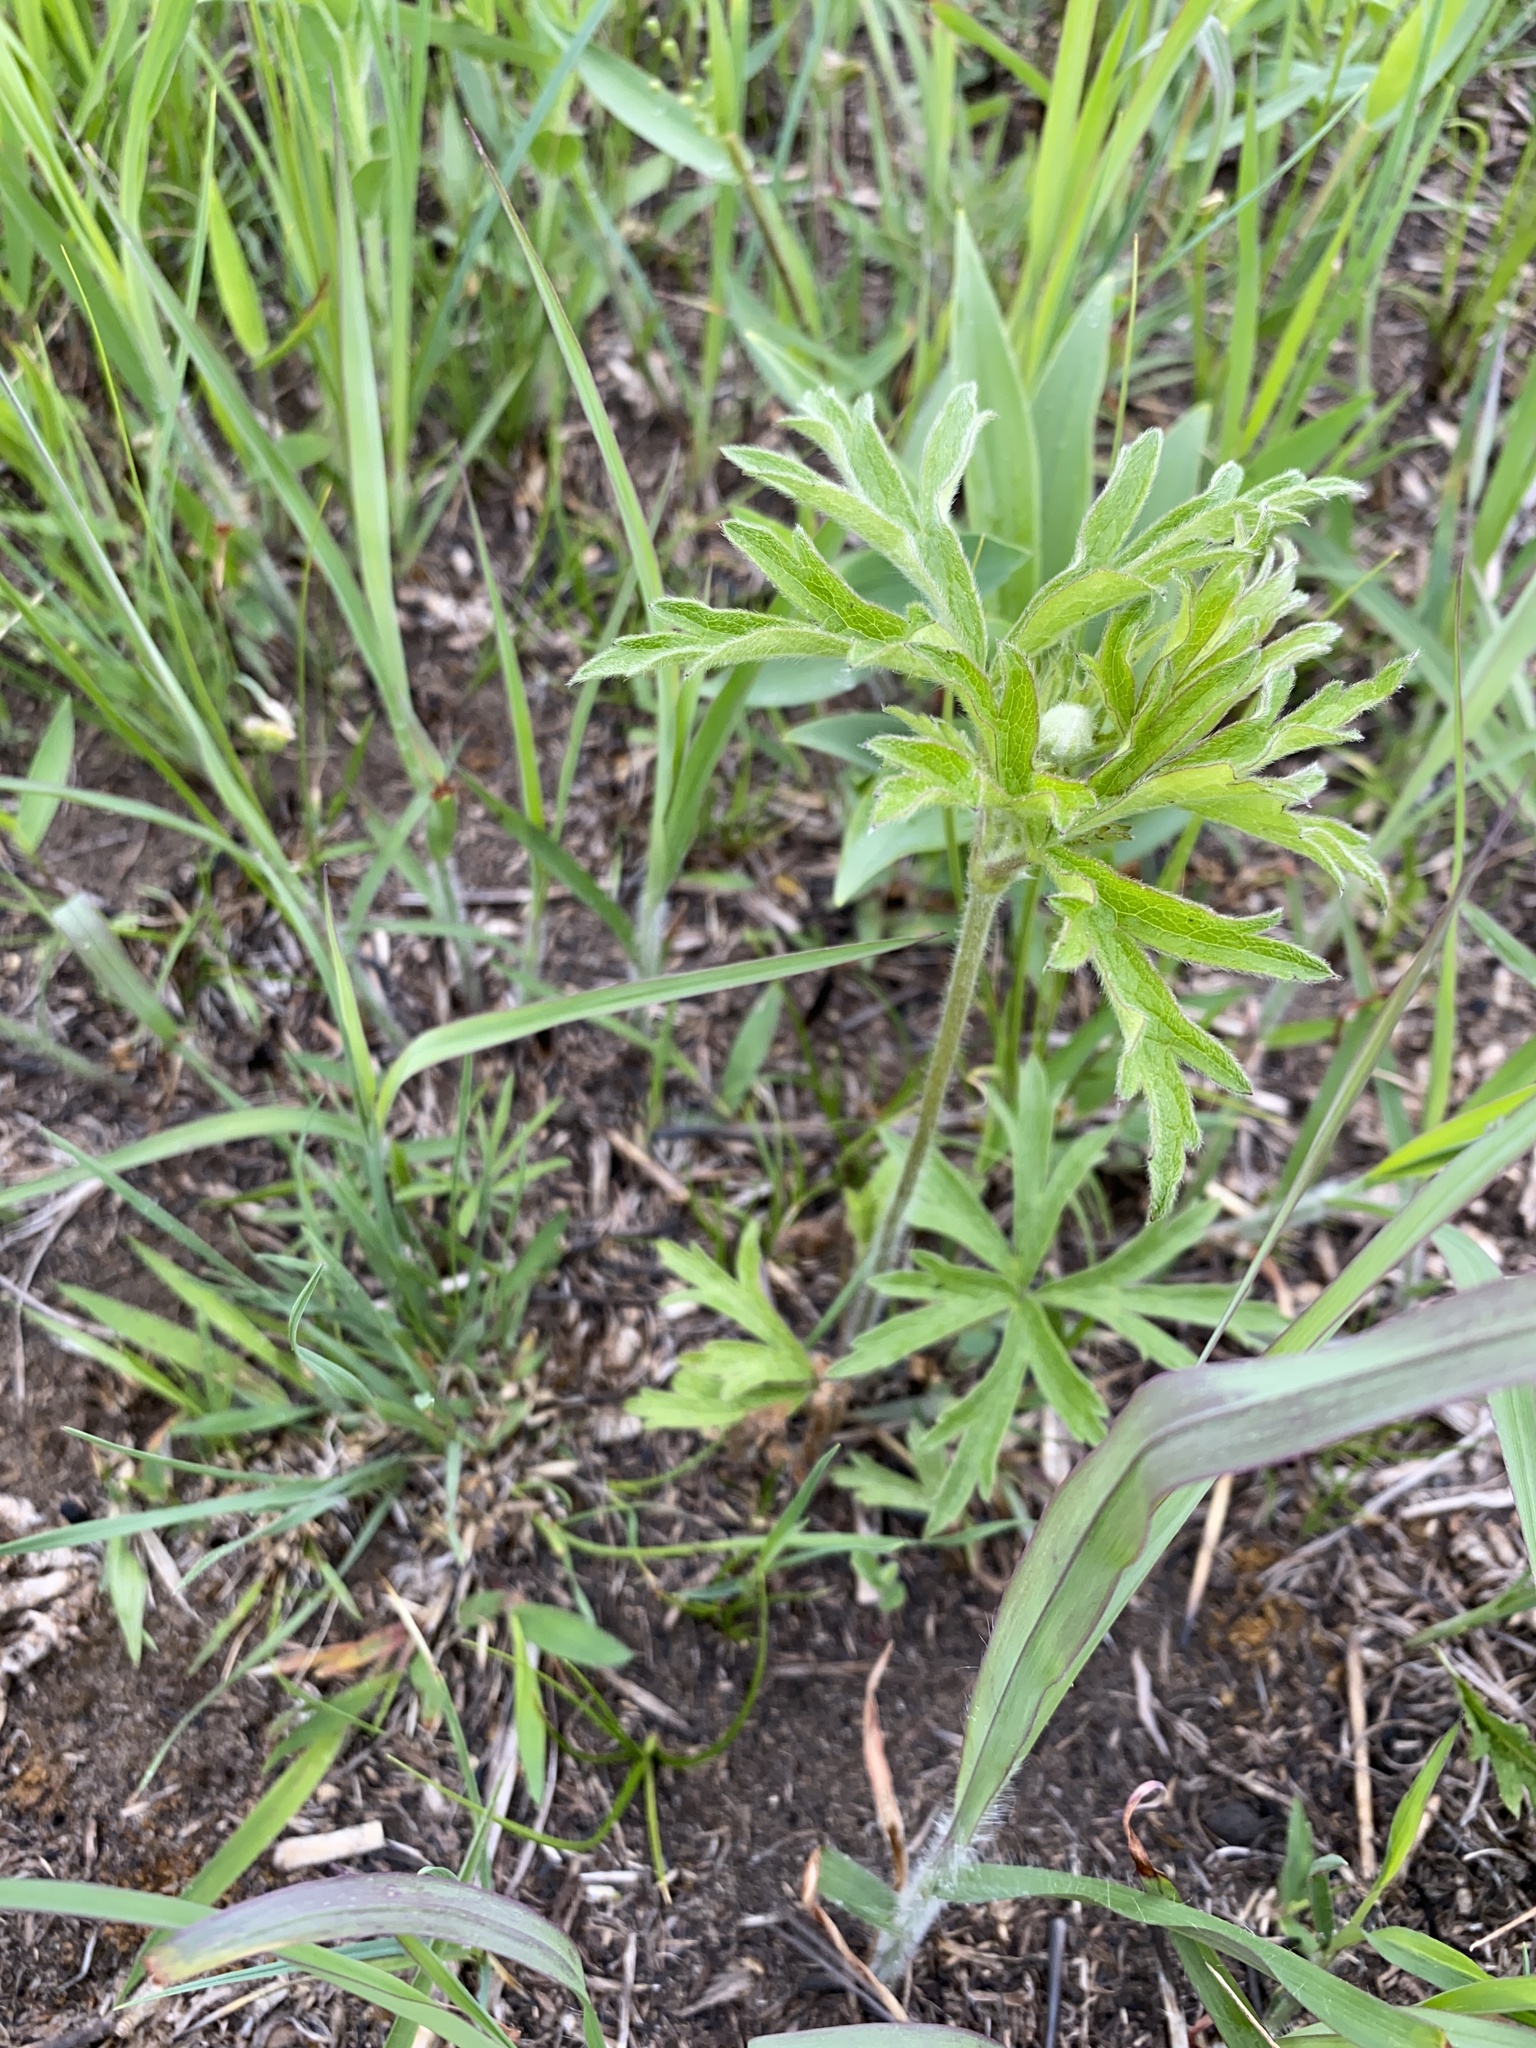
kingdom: Plantae
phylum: Tracheophyta
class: Magnoliopsida
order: Ranunculales
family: Ranunculaceae
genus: Anemone
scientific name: Anemone cylindrica
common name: Candle anemone
